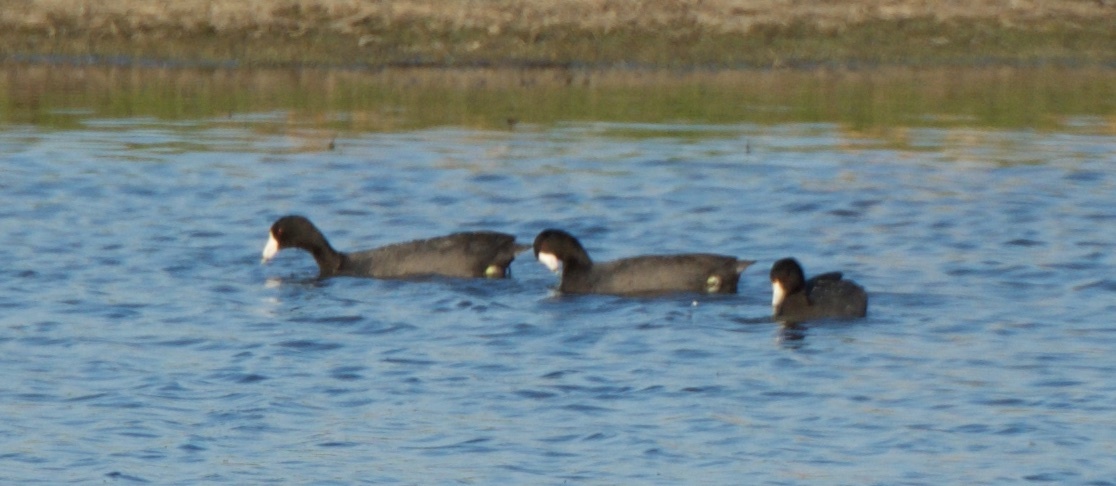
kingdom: Animalia
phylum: Chordata
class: Aves
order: Gruiformes
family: Rallidae
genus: Fulica
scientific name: Fulica americana
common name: American coot
